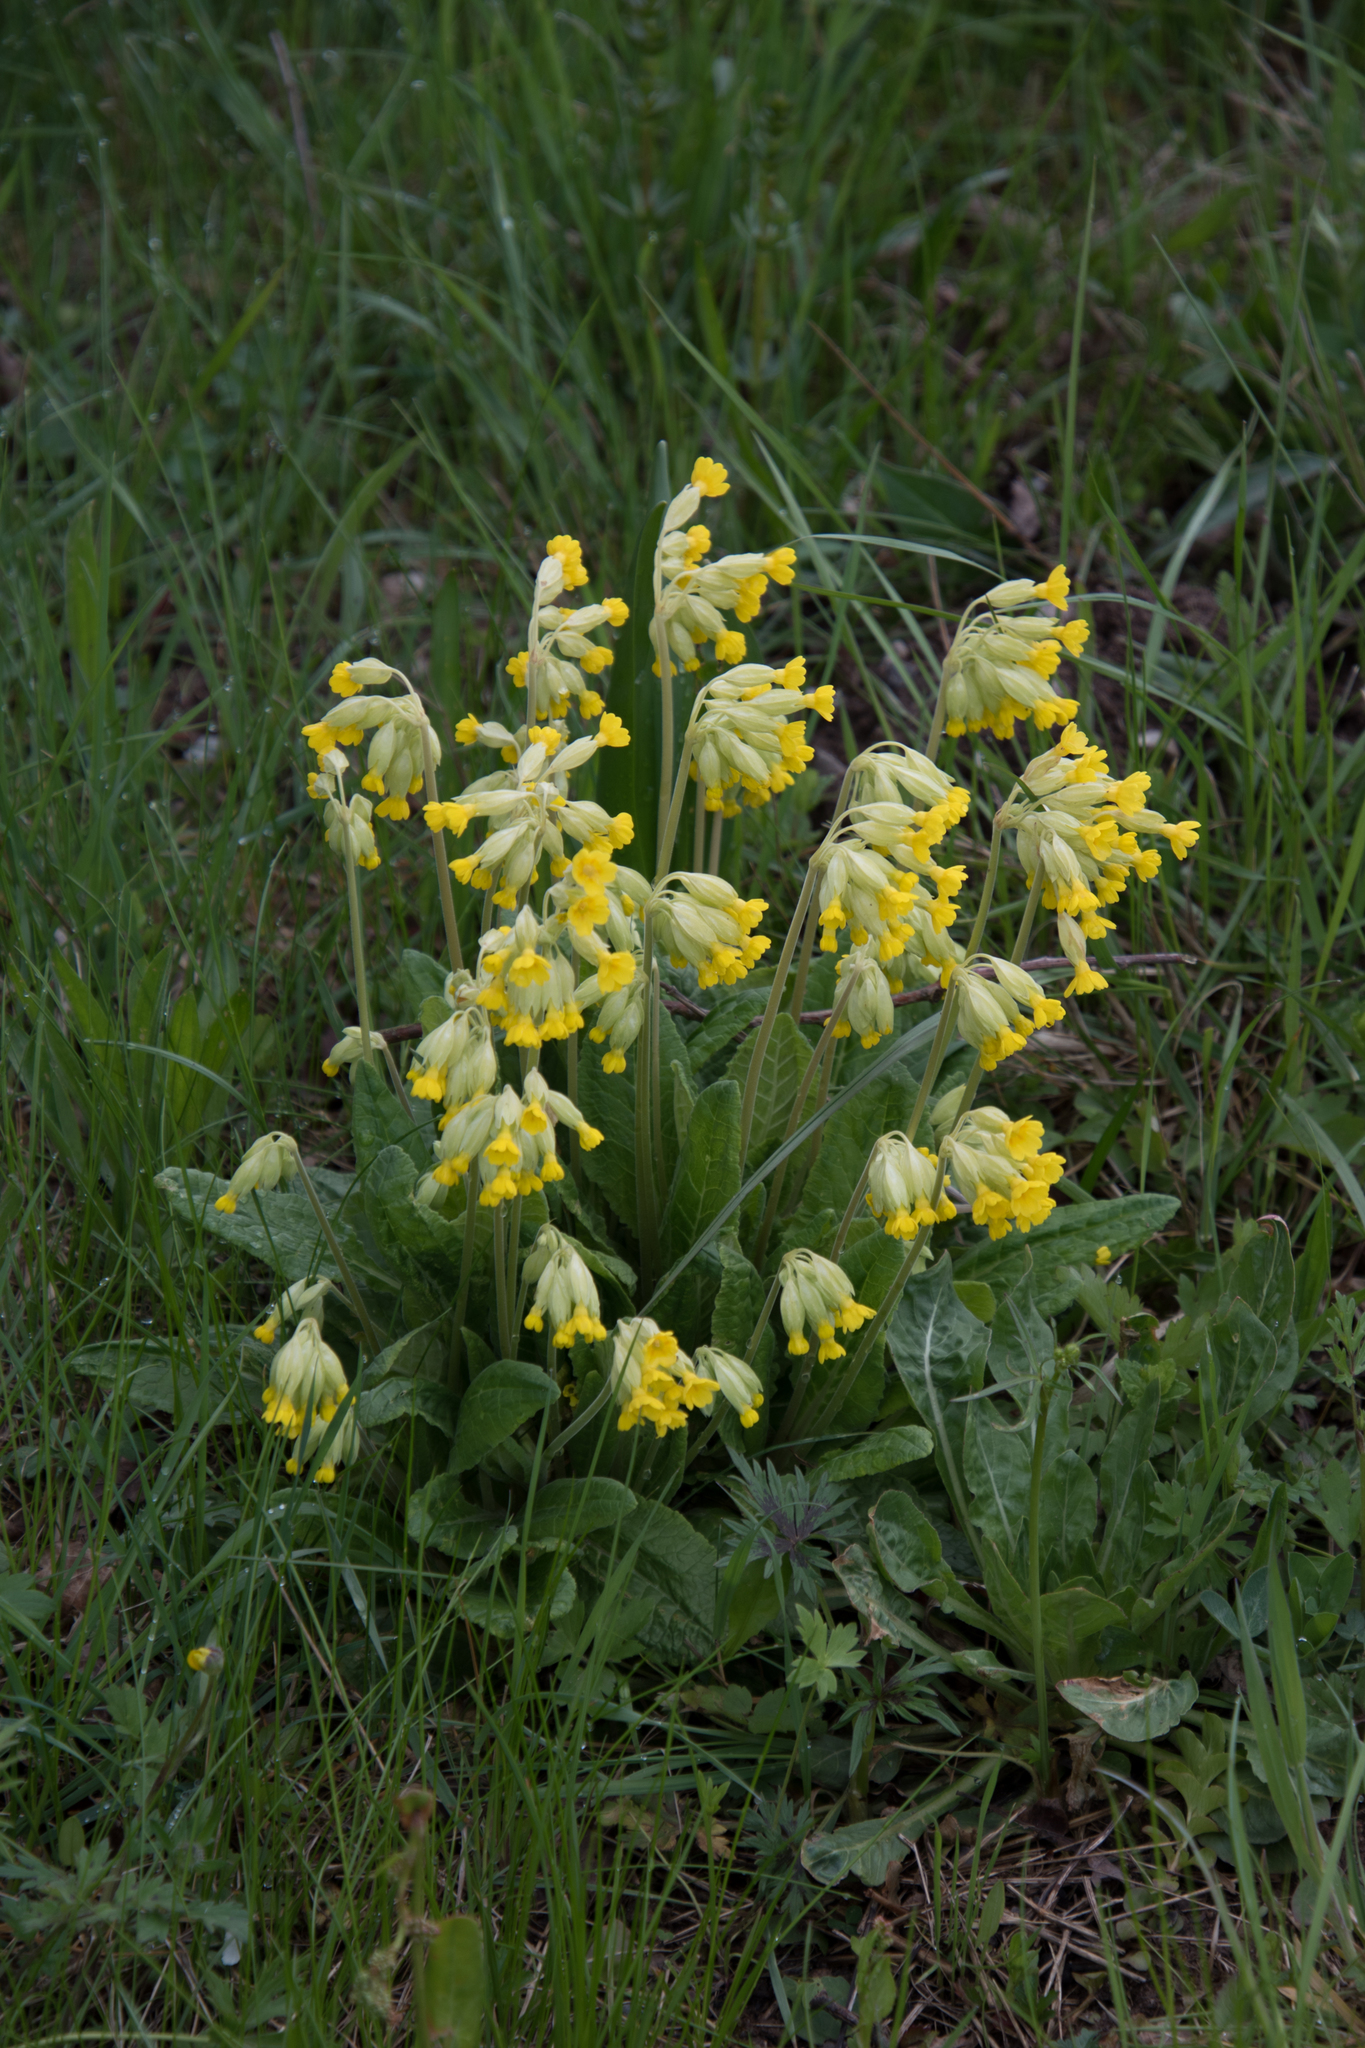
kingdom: Plantae
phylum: Tracheophyta
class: Magnoliopsida
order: Ericales
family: Primulaceae
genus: Primula
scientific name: Primula veris
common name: Cowslip
